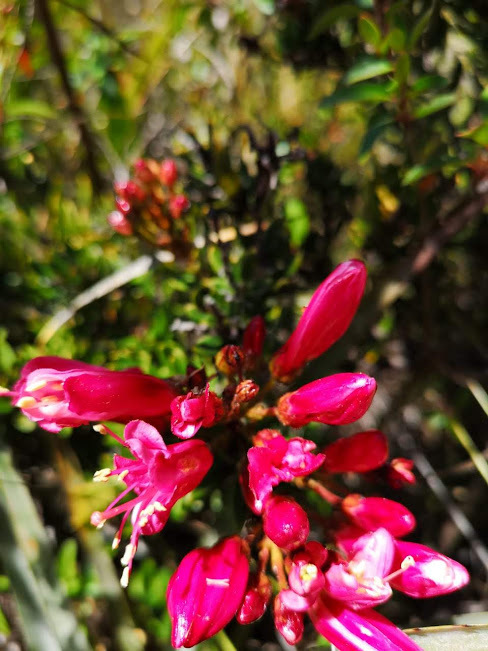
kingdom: Plantae
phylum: Tracheophyta
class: Magnoliopsida
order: Ericales
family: Ericaceae
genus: Bejaria
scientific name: Bejaria resinosa
